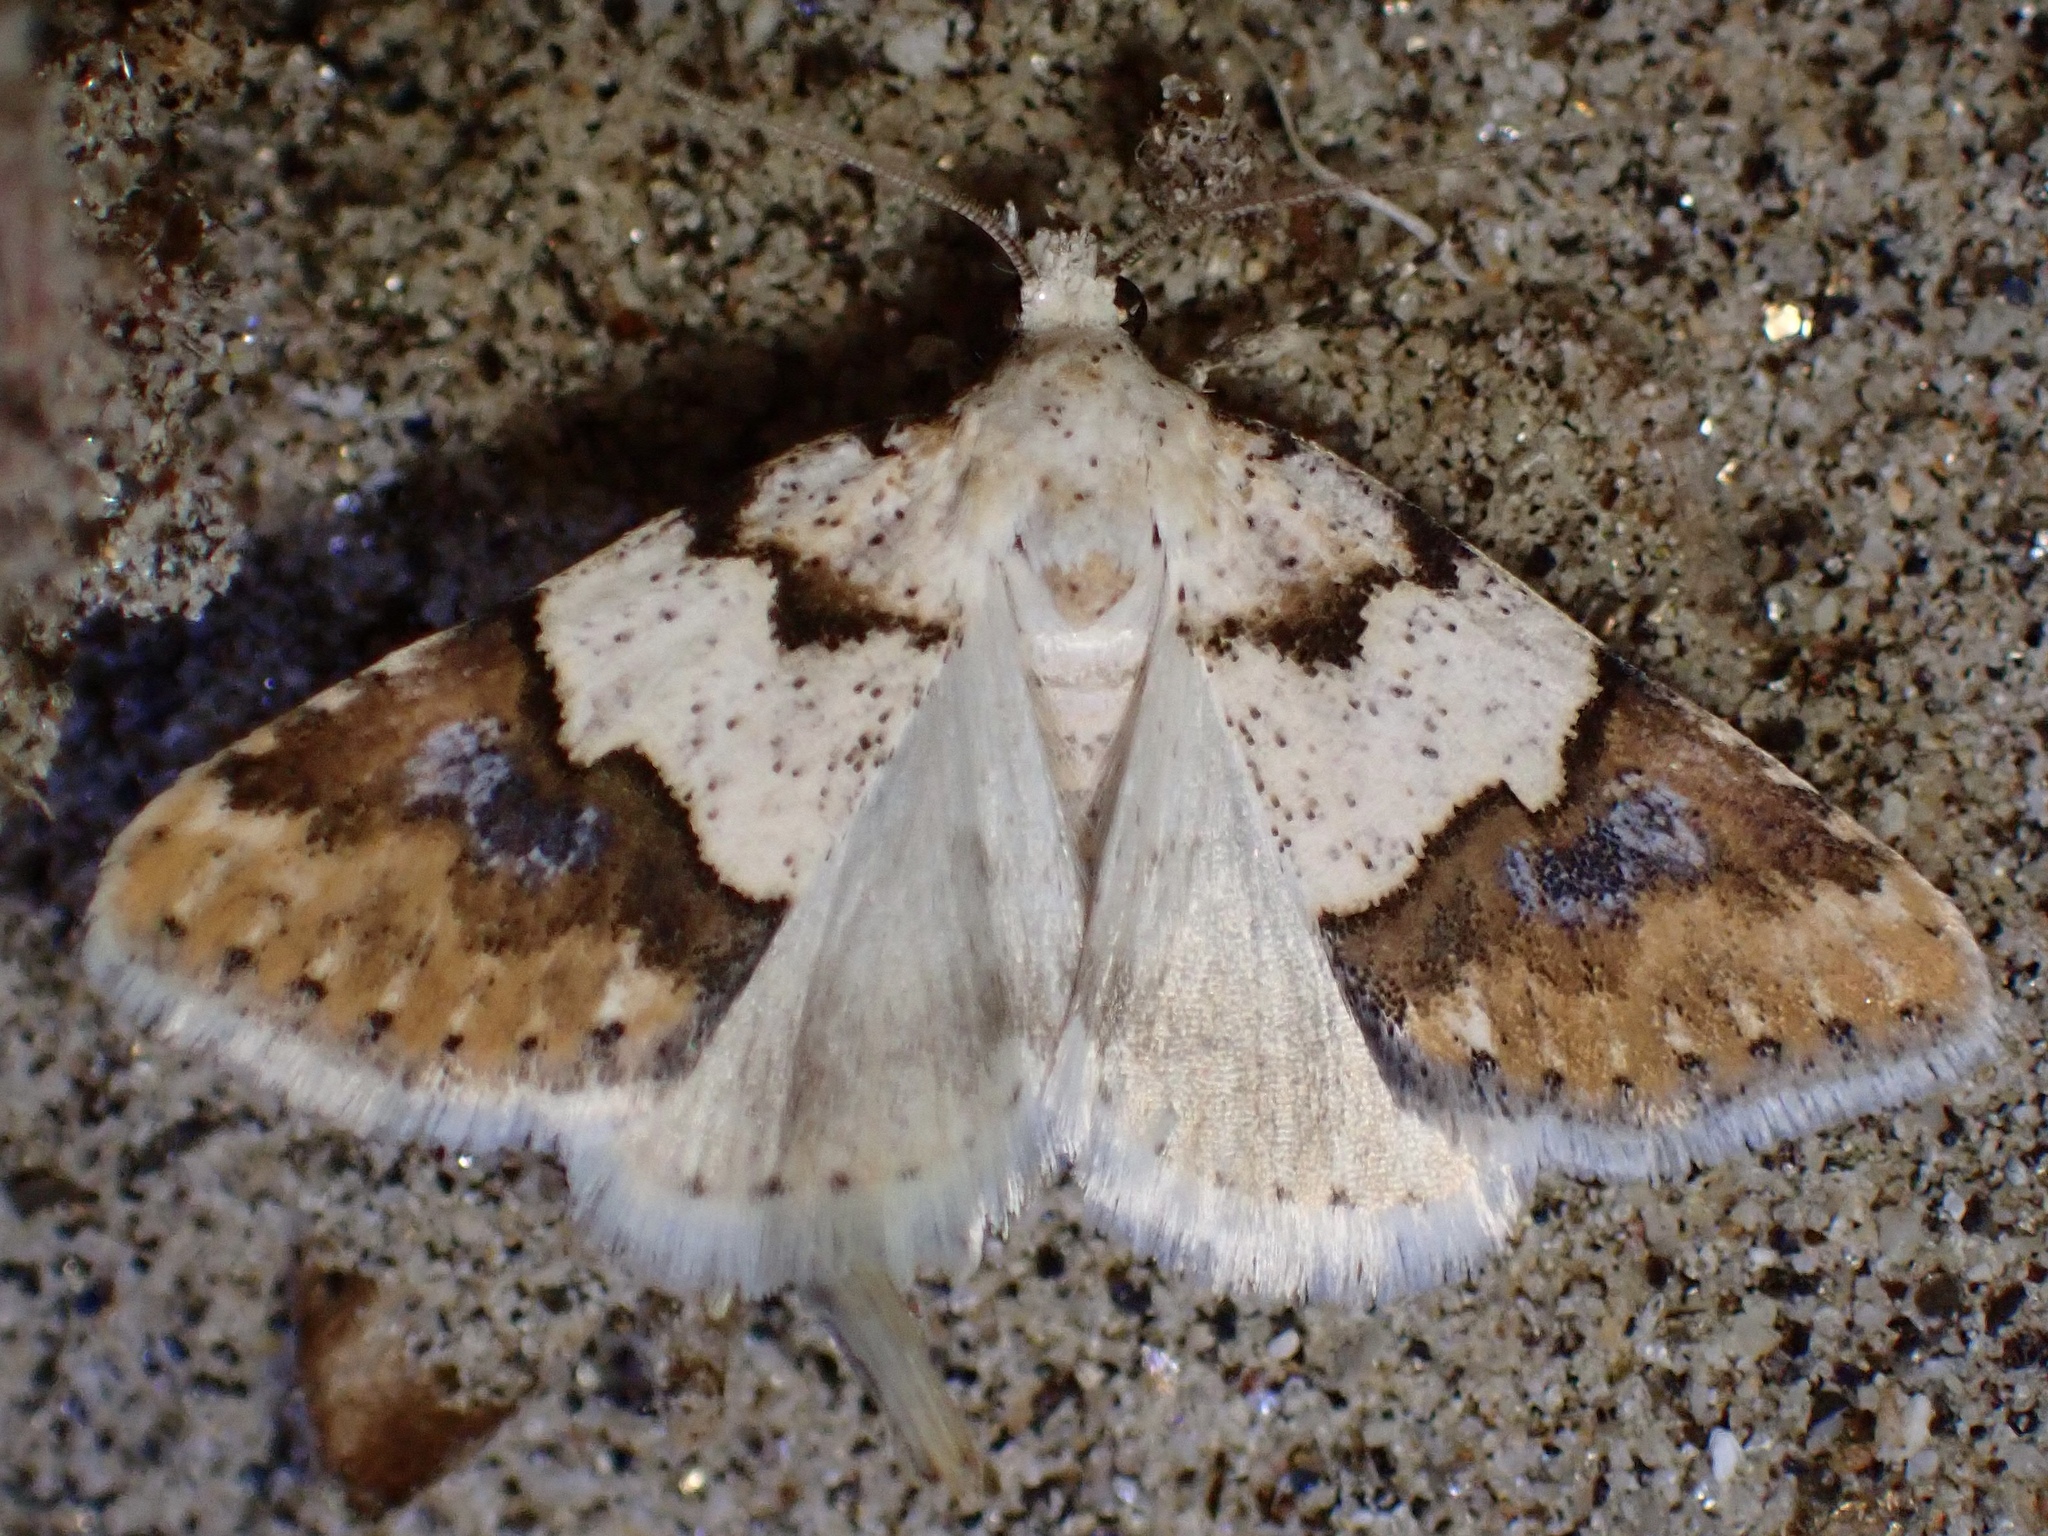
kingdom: Animalia
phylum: Arthropoda
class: Insecta
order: Lepidoptera
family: Noctuidae
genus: Euaontia
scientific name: Euaontia clarki
